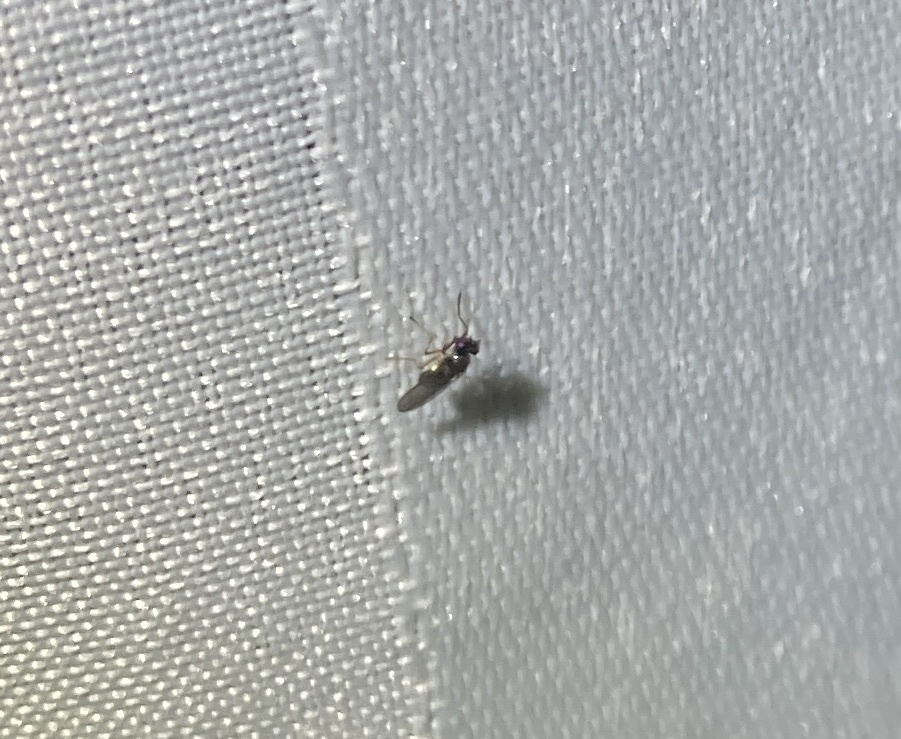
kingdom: Animalia
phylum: Arthropoda
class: Insecta
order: Diptera
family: Ephydridae
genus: Hydrellia
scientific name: Hydrellia tritici
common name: Shore fly
